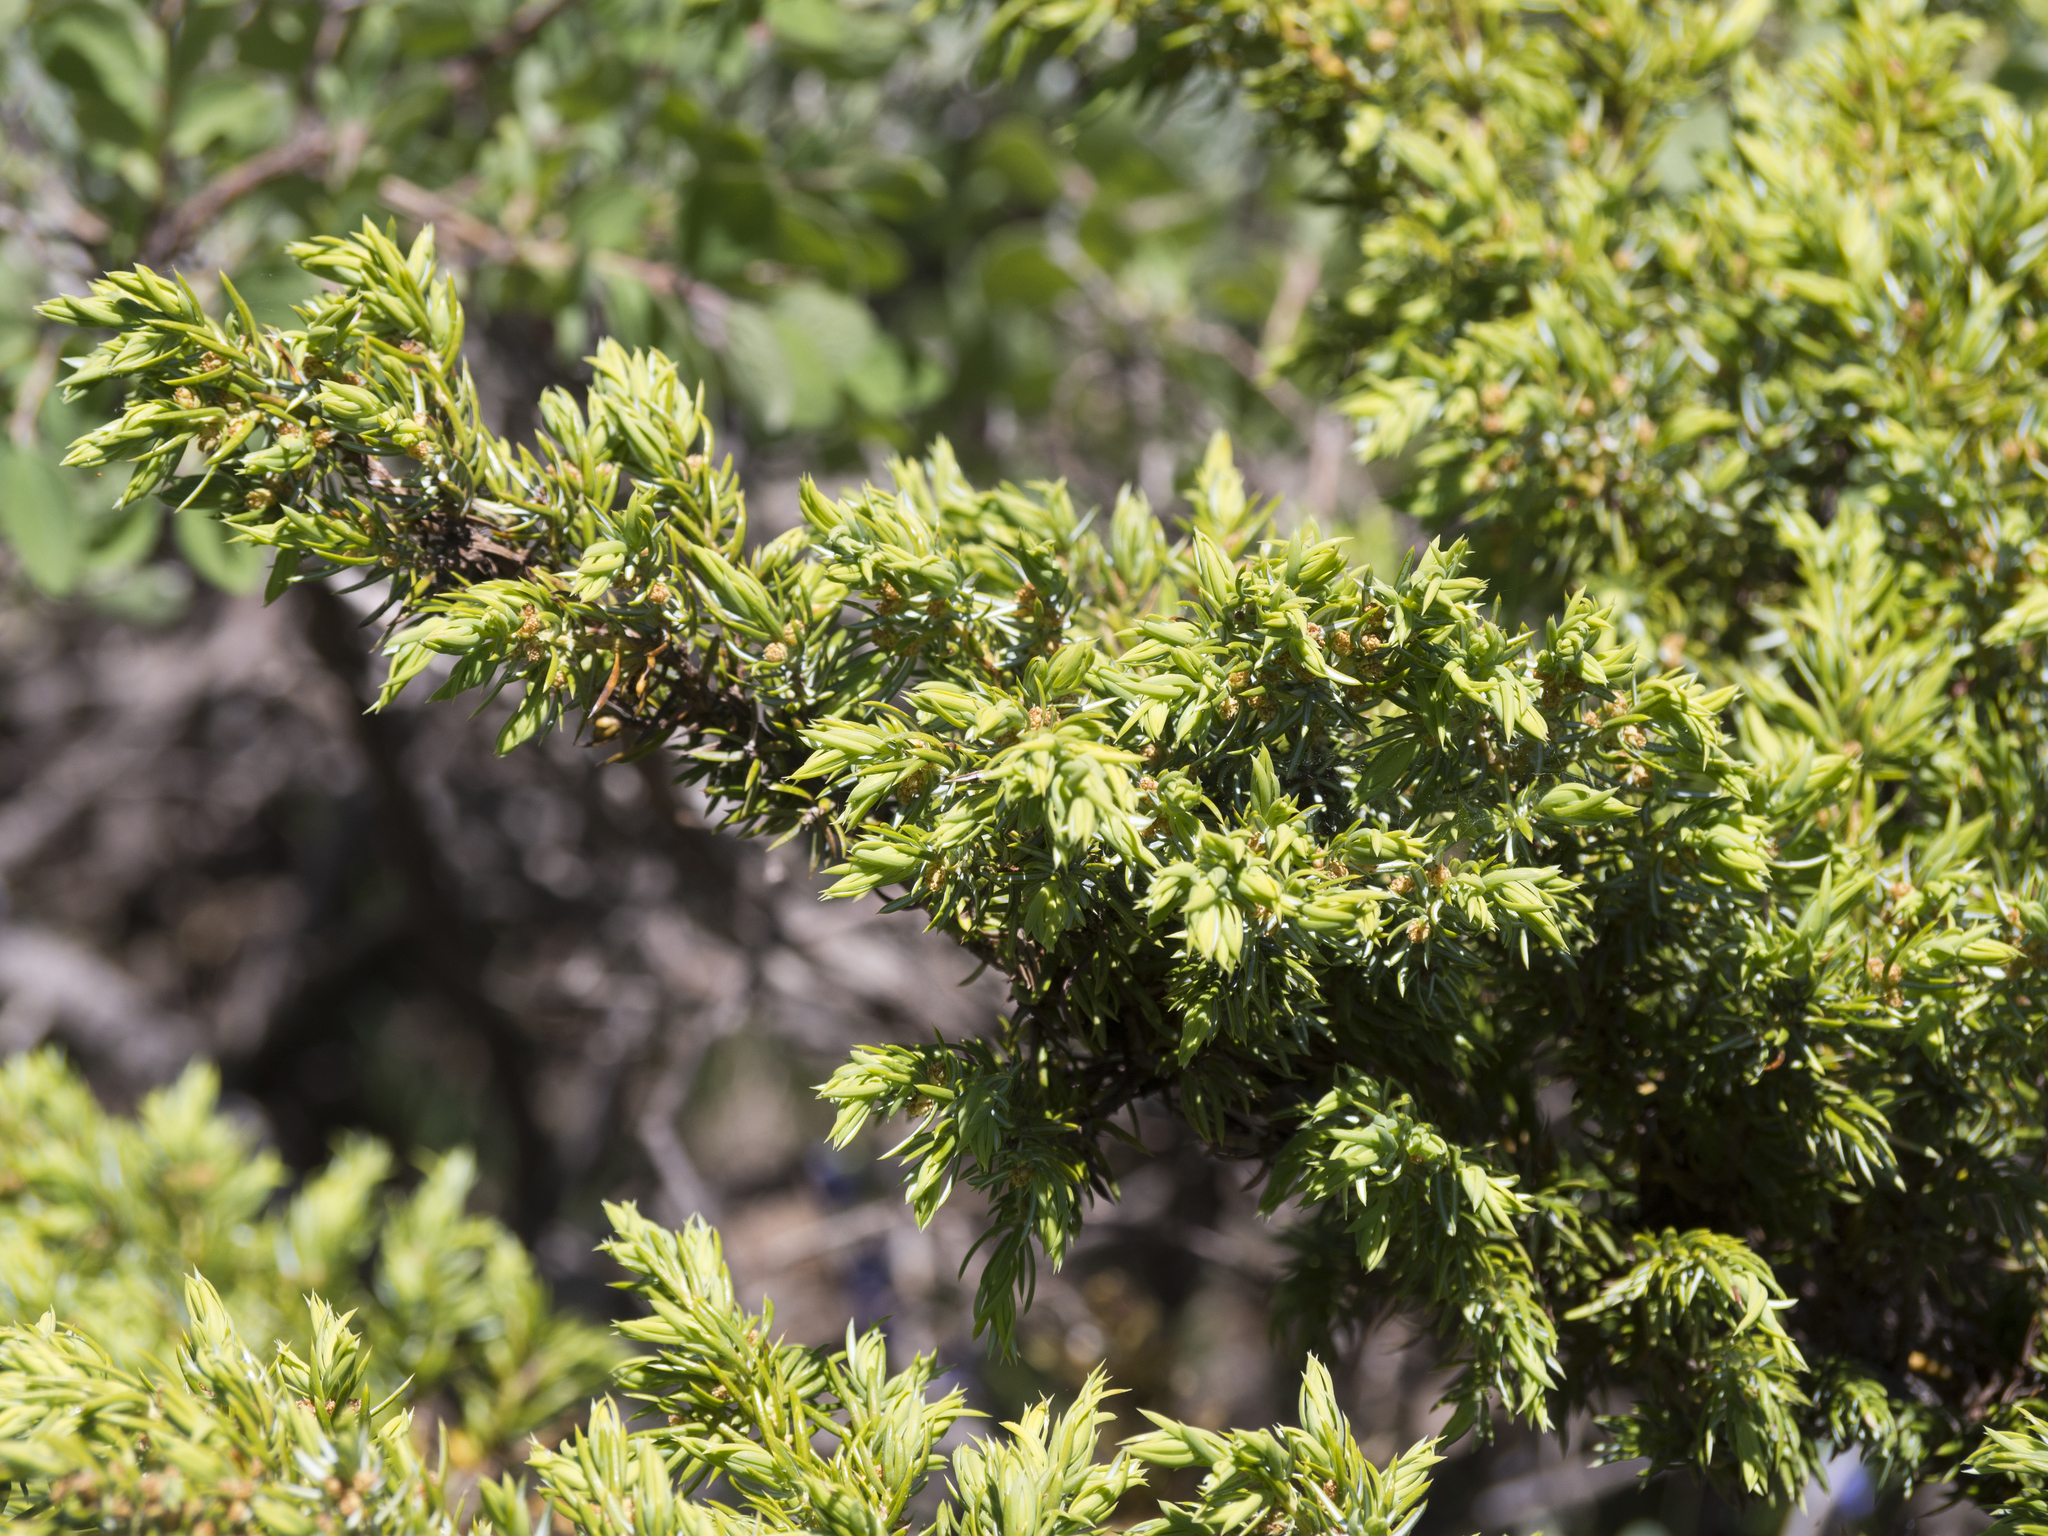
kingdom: Plantae
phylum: Tracheophyta
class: Pinopsida
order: Pinales
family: Cupressaceae
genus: Juniperus
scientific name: Juniperus communis
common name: Common juniper
